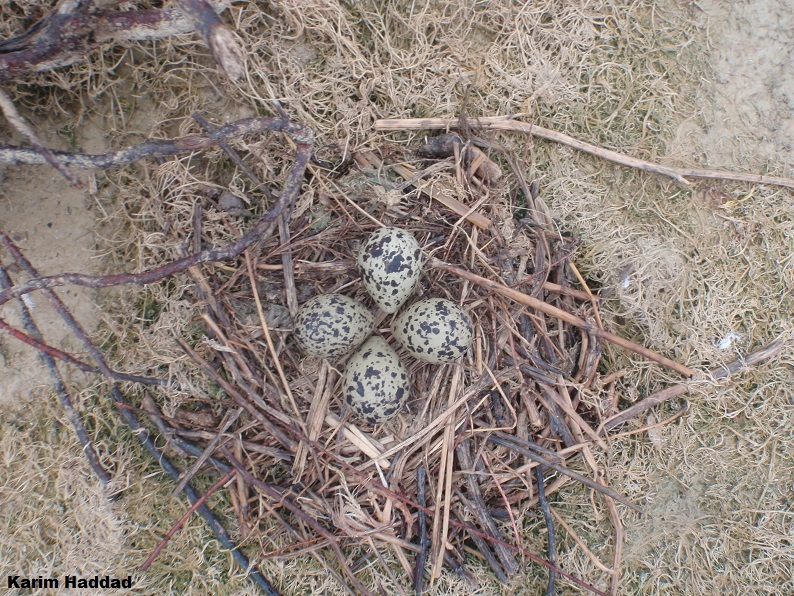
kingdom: Animalia
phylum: Chordata
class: Aves
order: Charadriiformes
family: Recurvirostridae
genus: Himantopus
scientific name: Himantopus himantopus
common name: Black-winged stilt
